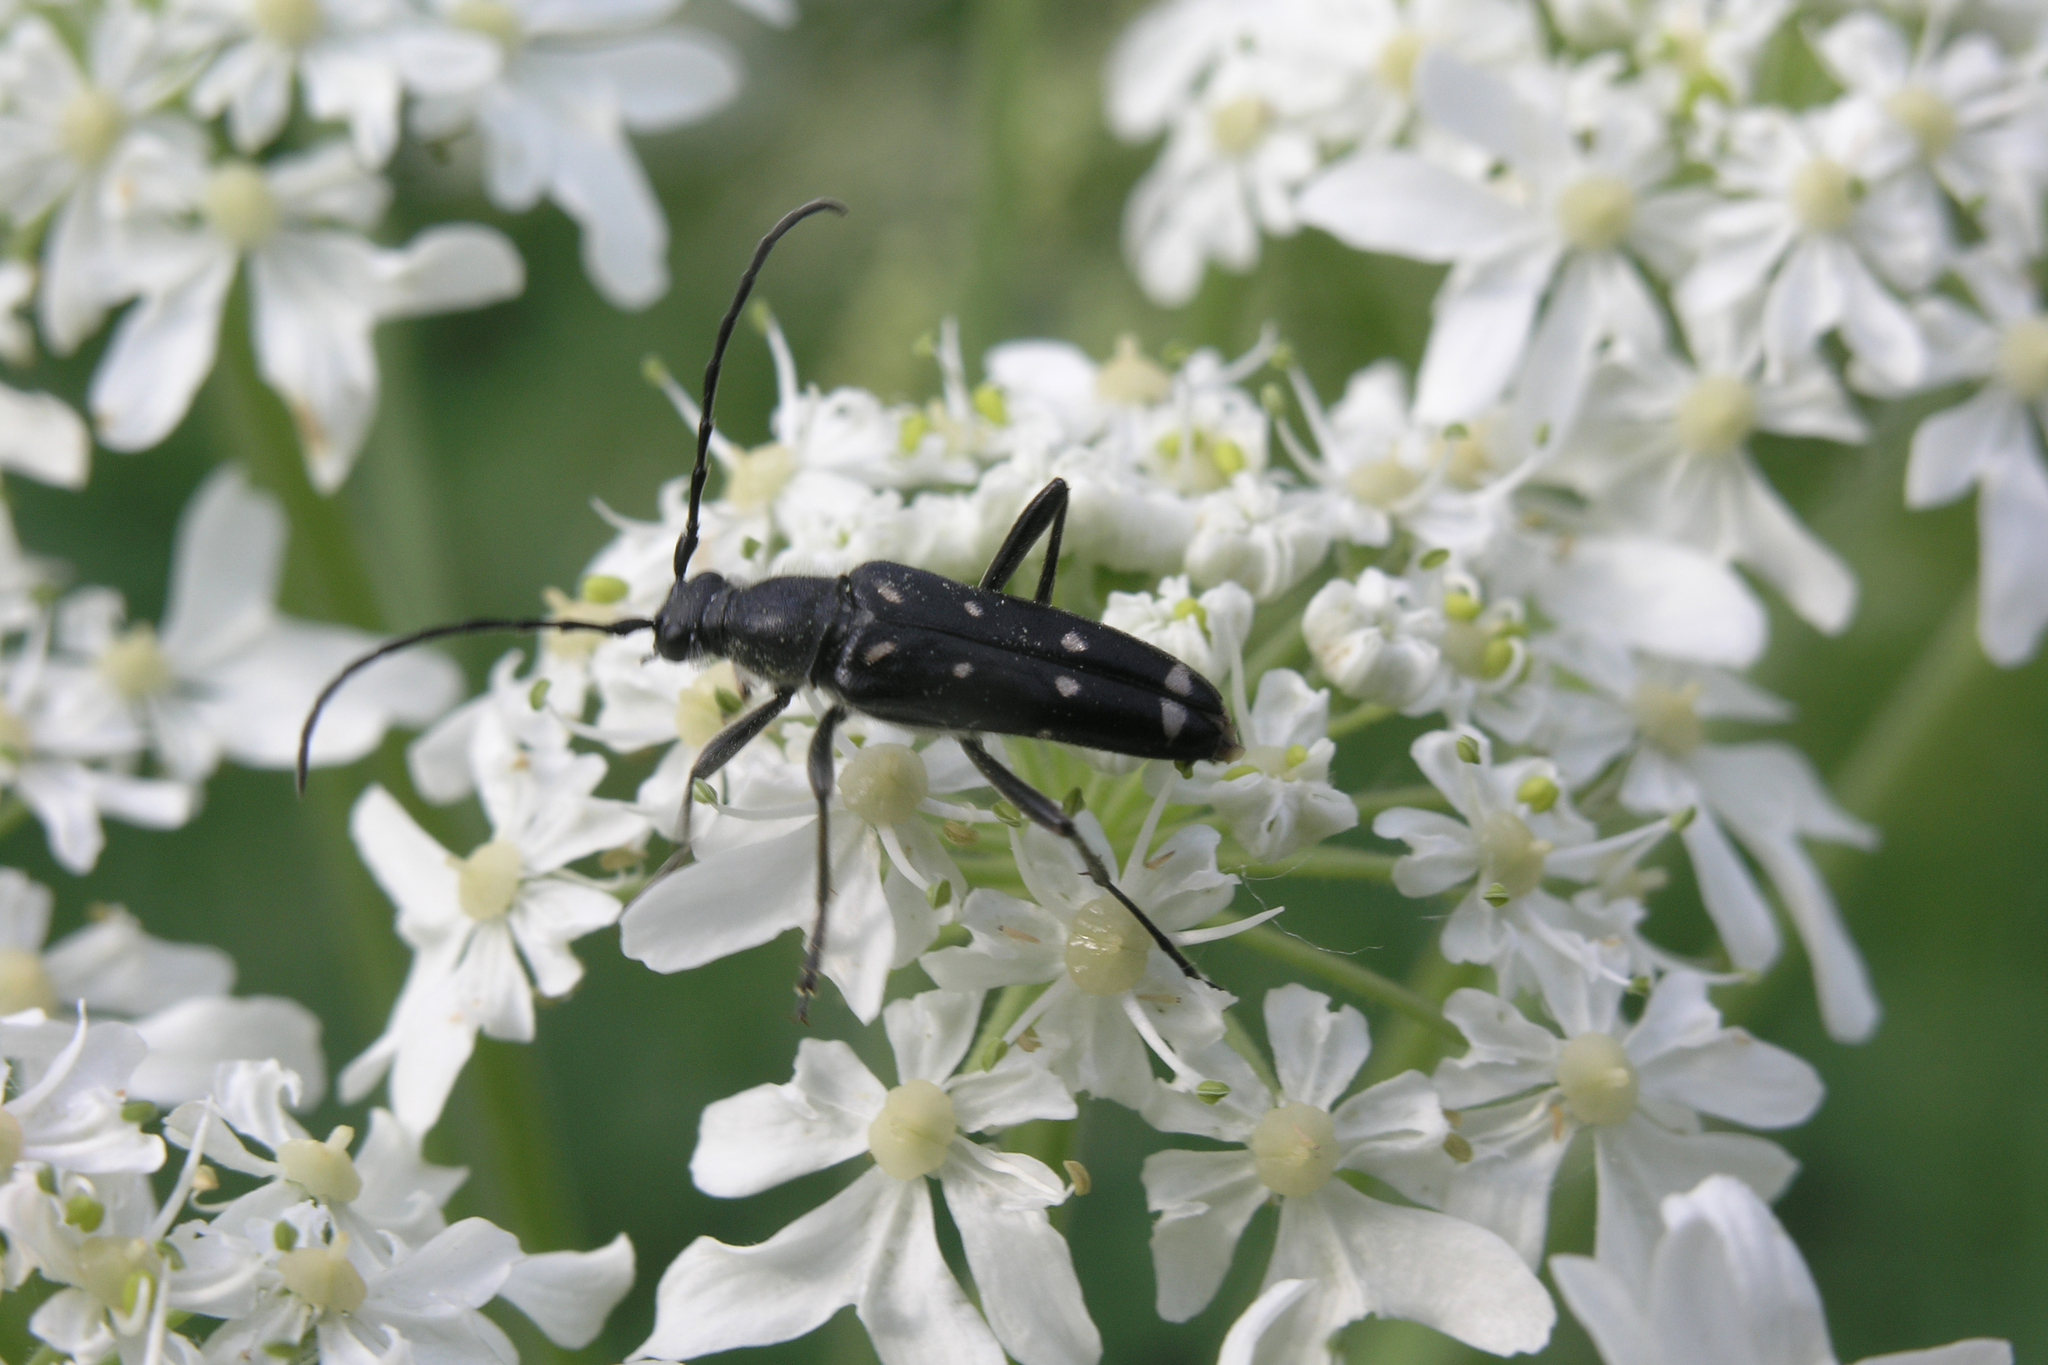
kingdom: Plantae
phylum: Tracheophyta
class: Magnoliopsida
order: Apiales
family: Apiaceae
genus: Heracleum
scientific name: Heracleum dissectum
